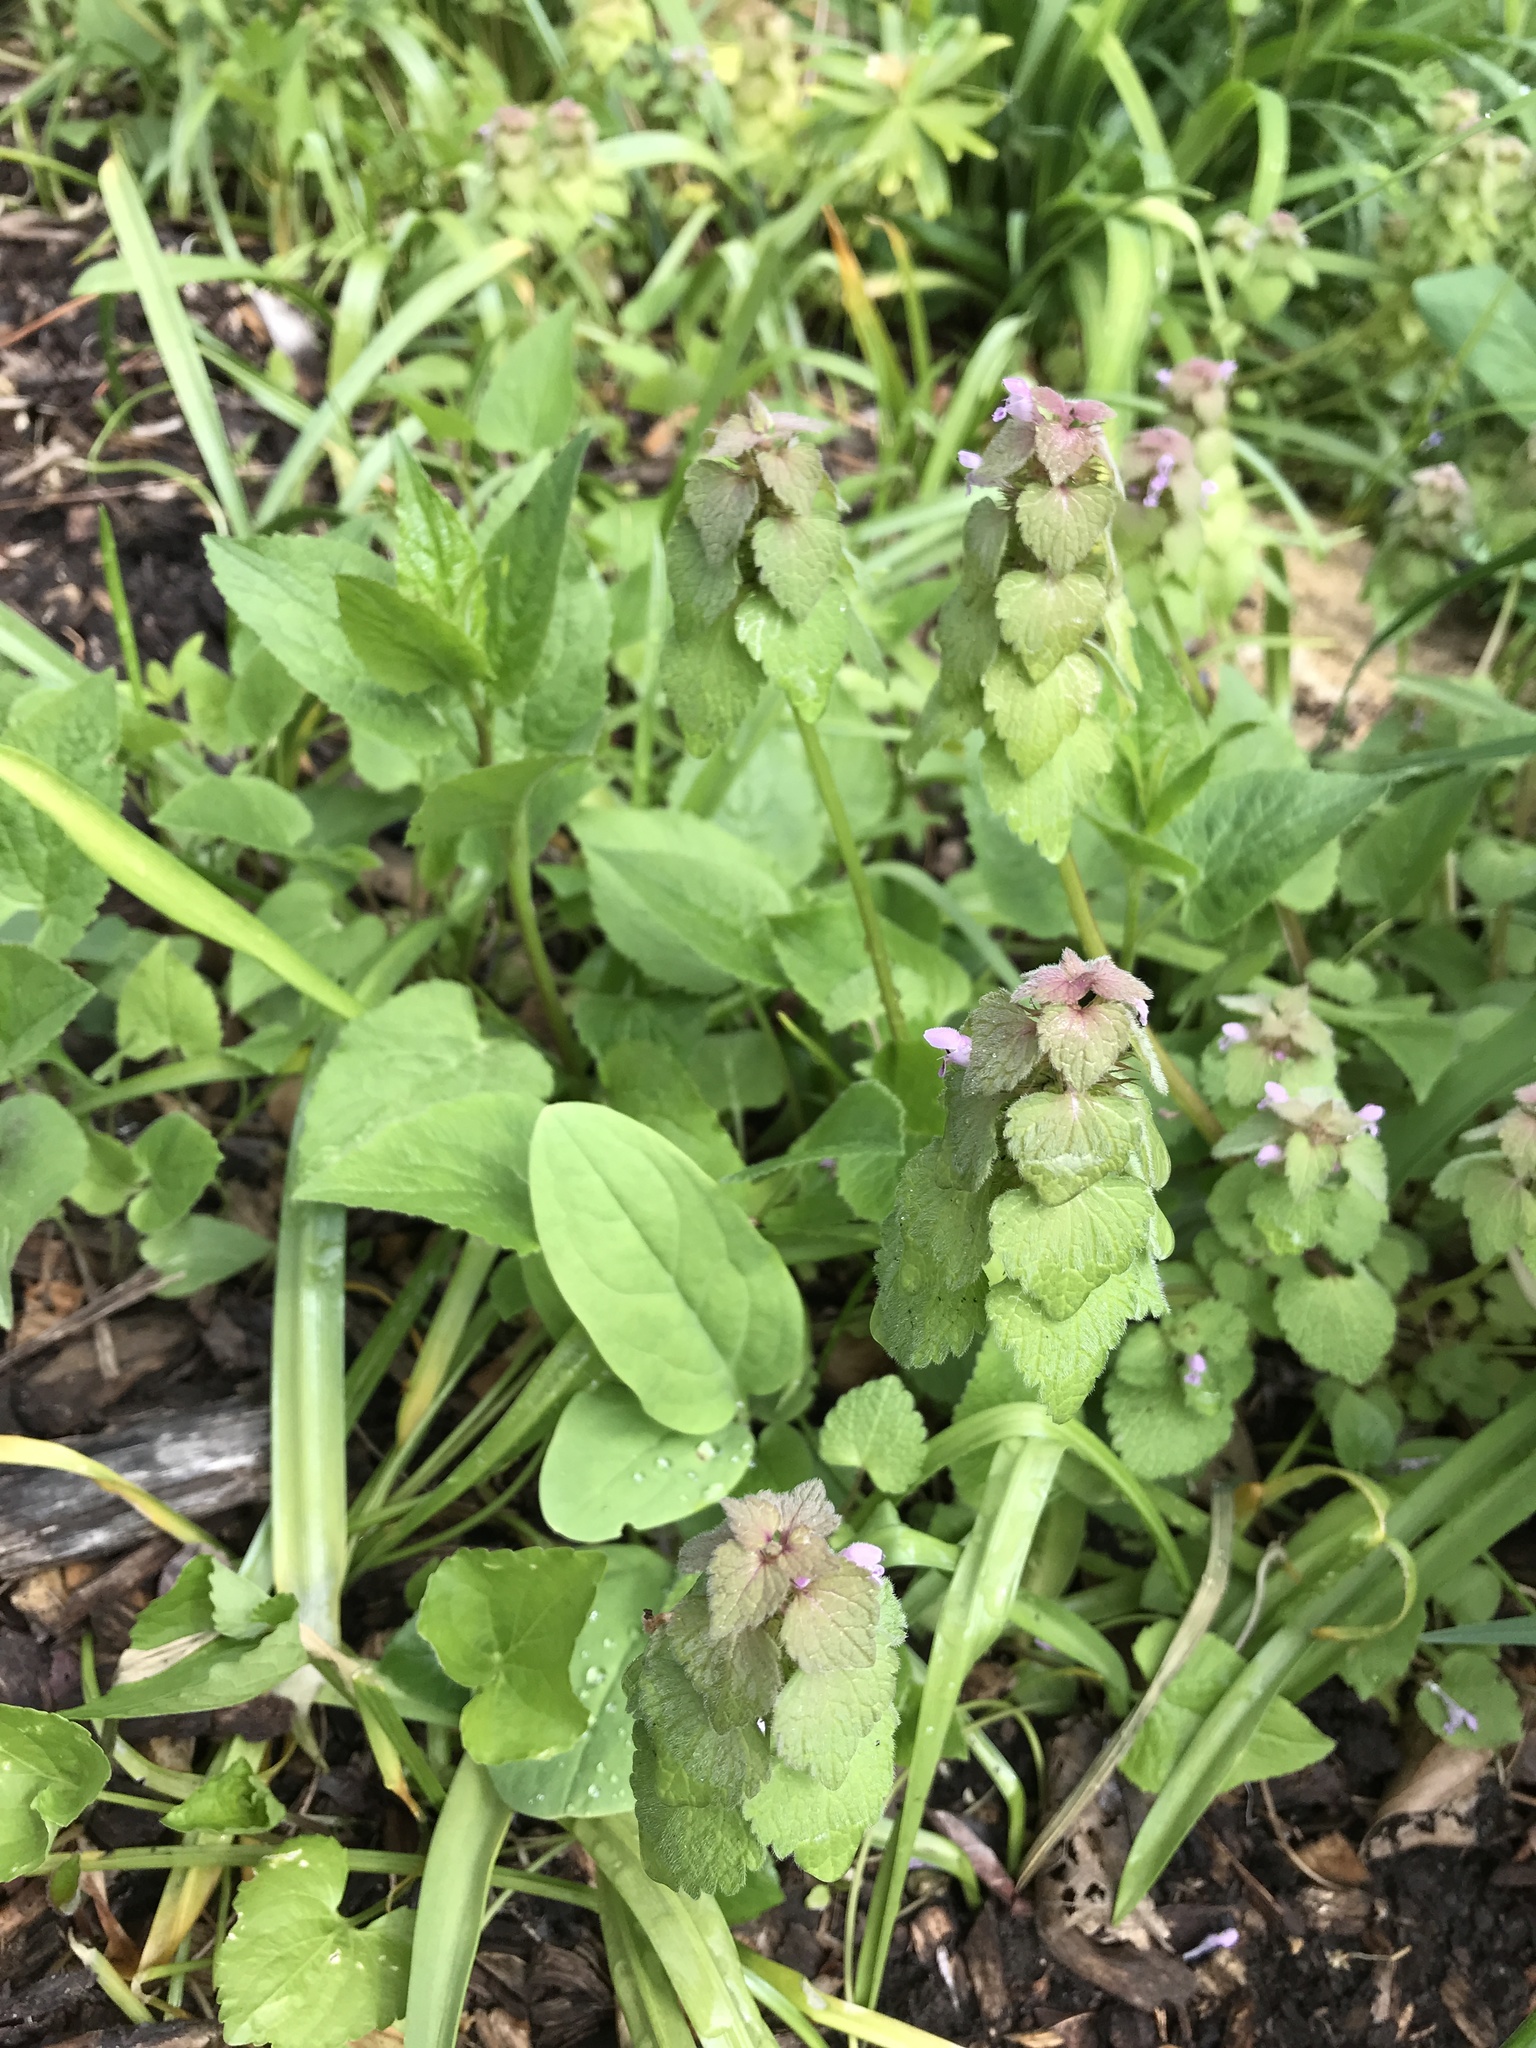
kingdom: Plantae
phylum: Tracheophyta
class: Magnoliopsida
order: Lamiales
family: Lamiaceae
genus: Lamium
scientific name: Lamium purpureum
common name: Red dead-nettle
